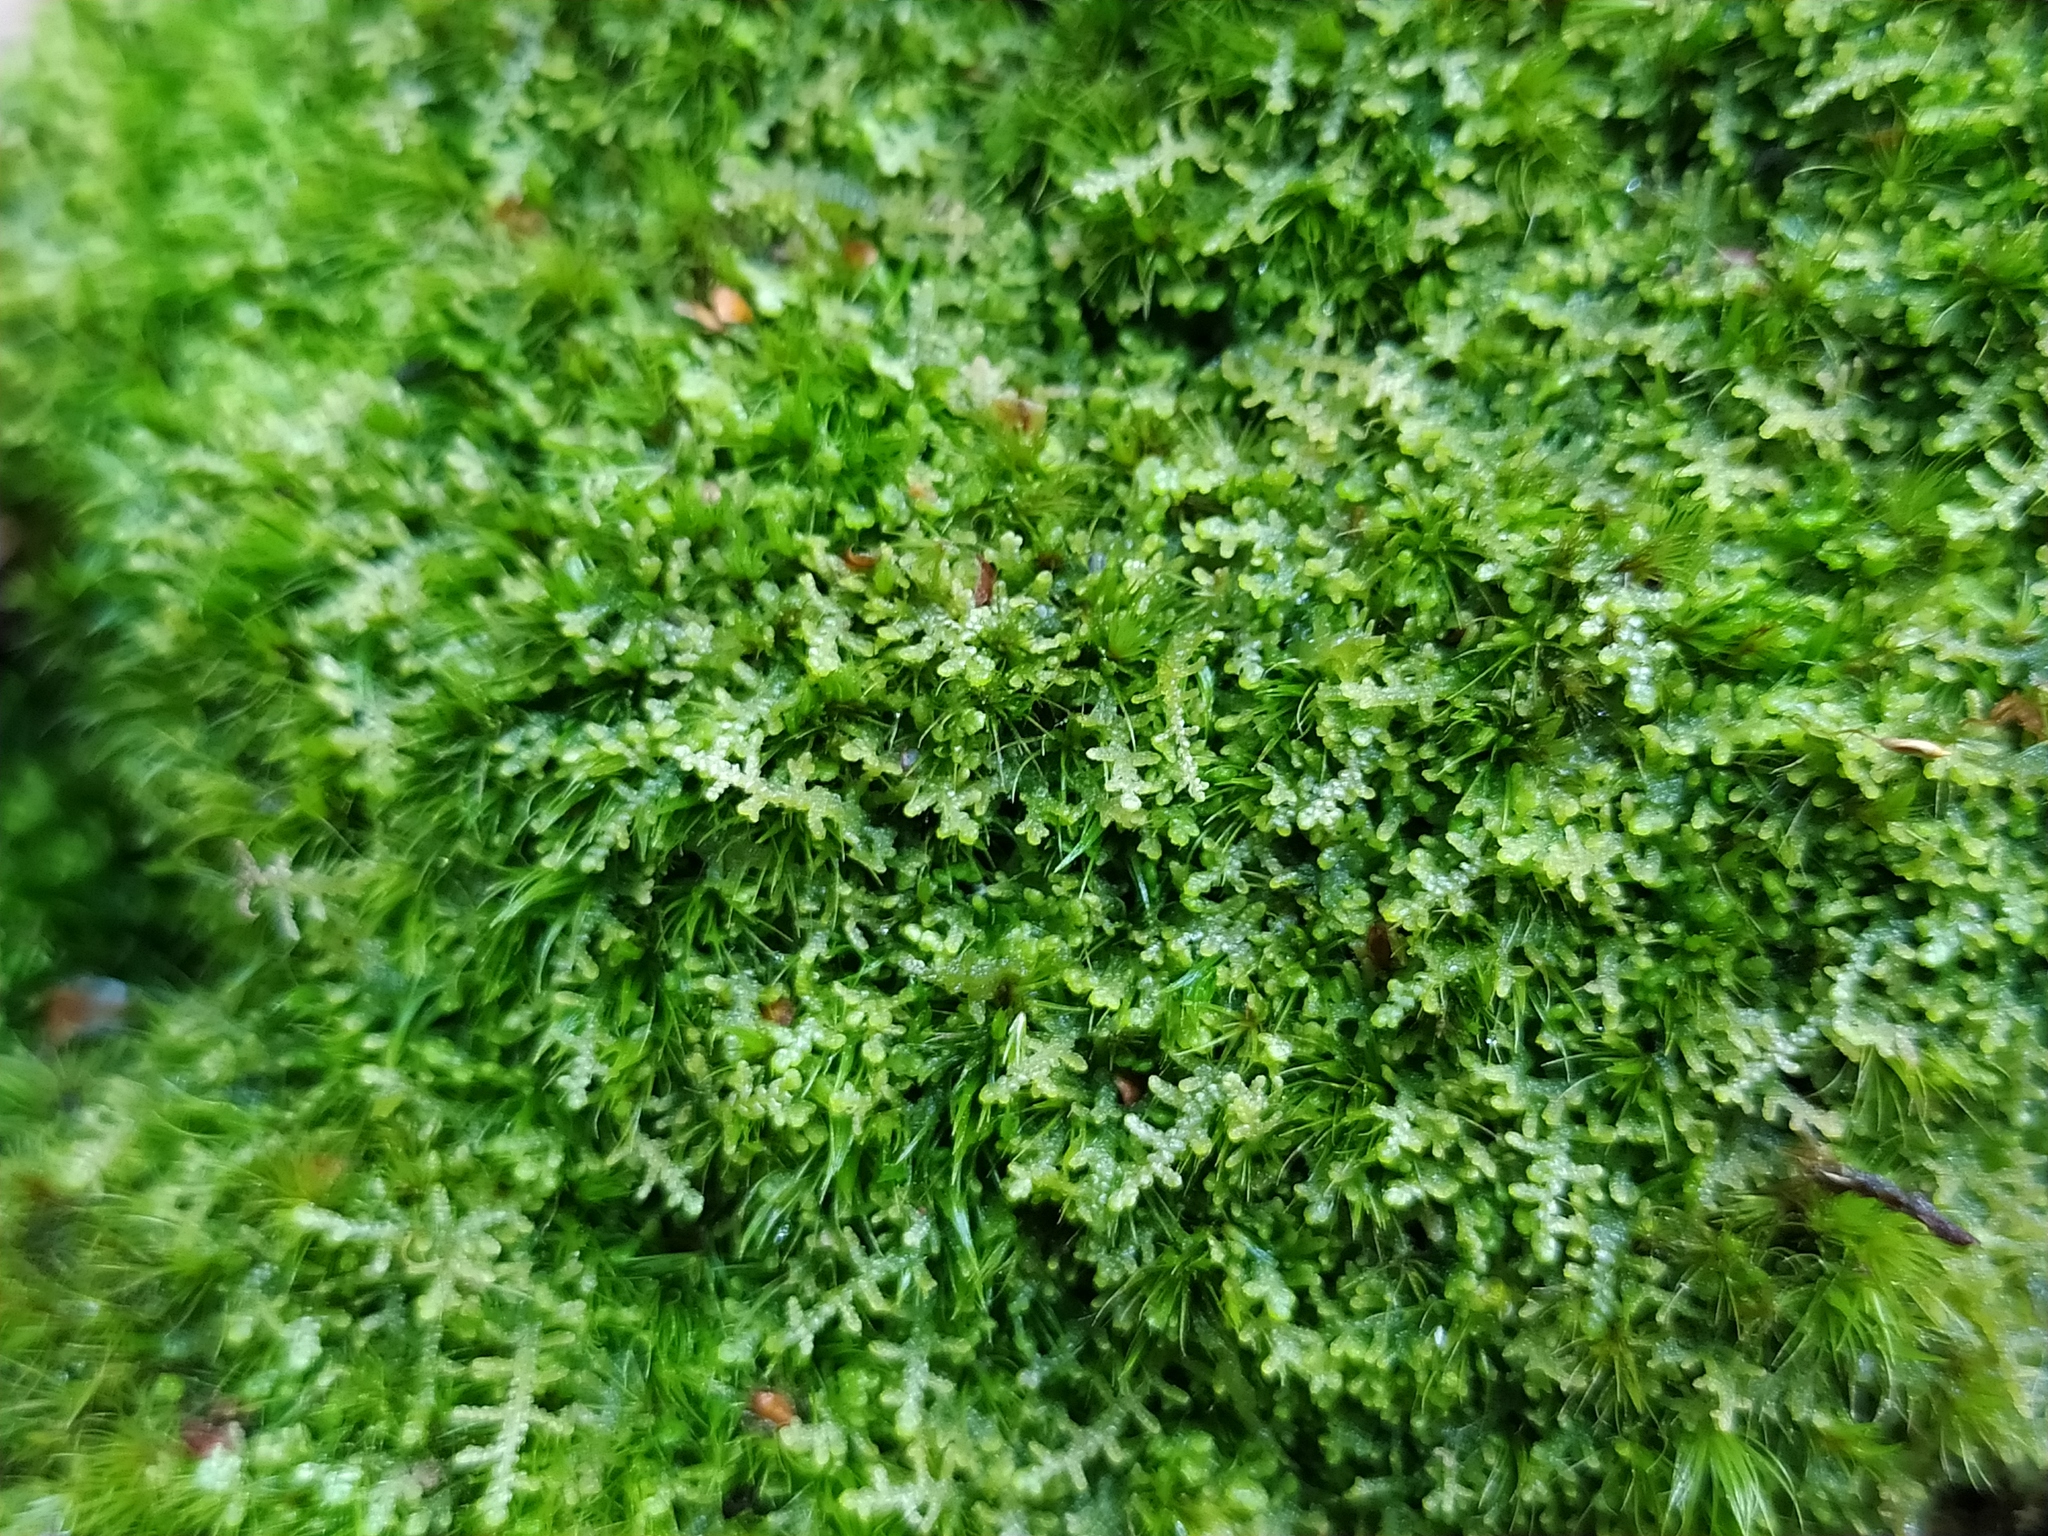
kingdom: Plantae
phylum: Marchantiophyta
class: Jungermanniopsida
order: Jungermanniales
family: Lepidoziaceae
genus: Lepidozia
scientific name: Lepidozia reptans
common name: Creeping fingerwort
